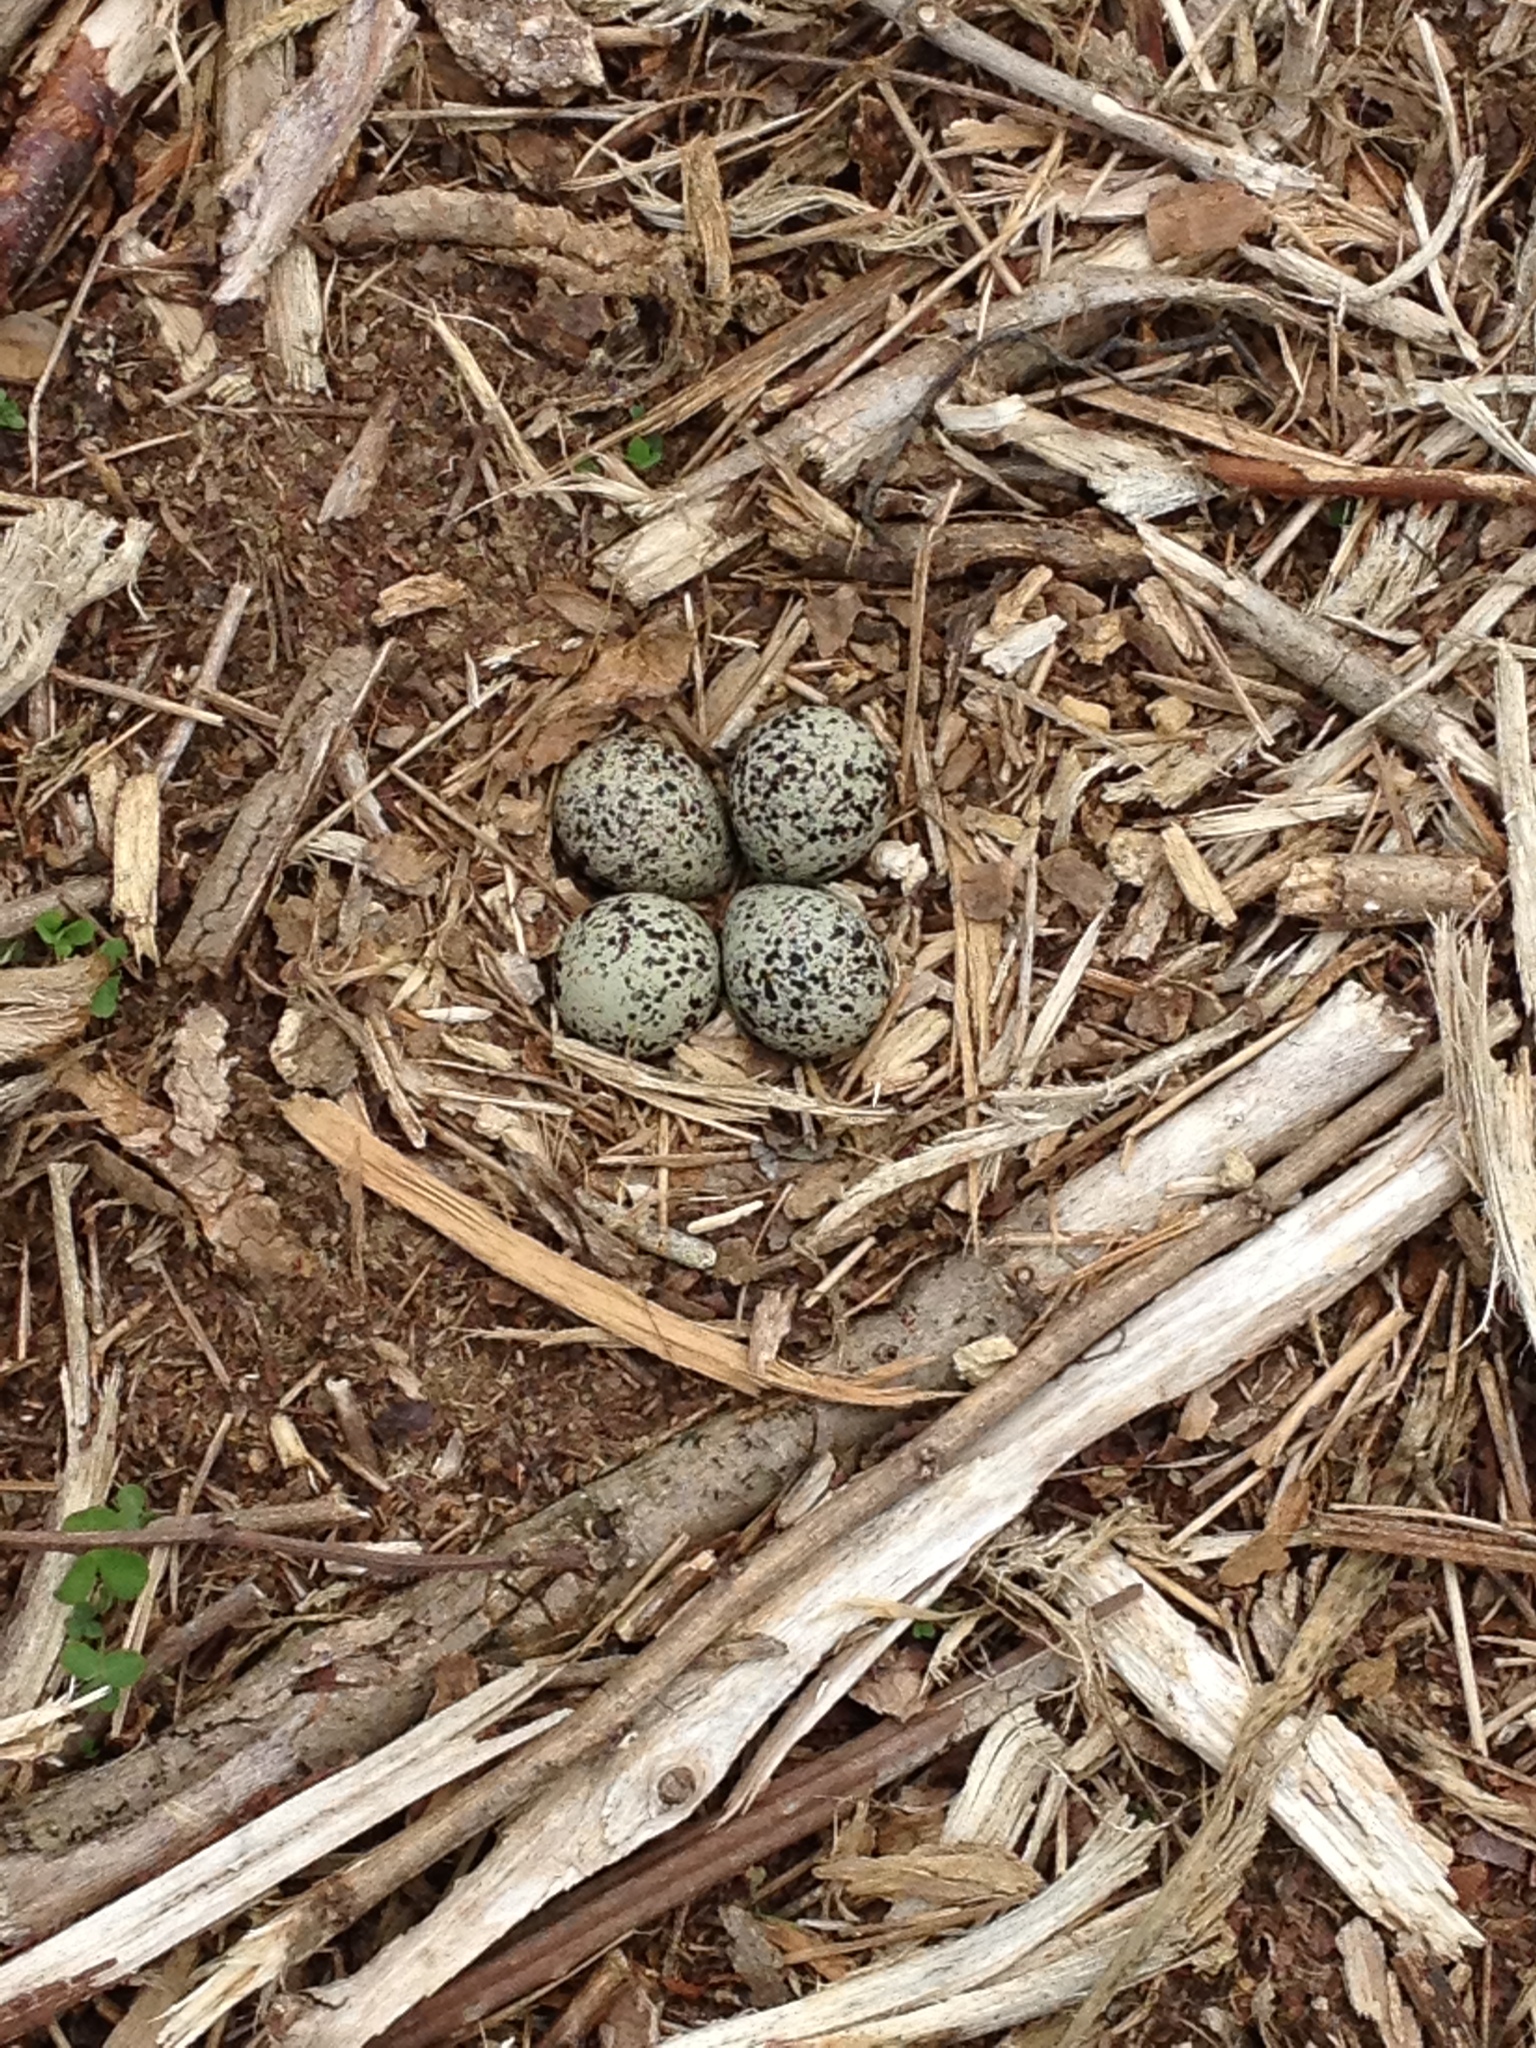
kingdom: Animalia
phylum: Chordata
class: Aves
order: Charadriiformes
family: Charadriidae
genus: Charadrius
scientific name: Charadrius vociferus
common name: Killdeer
